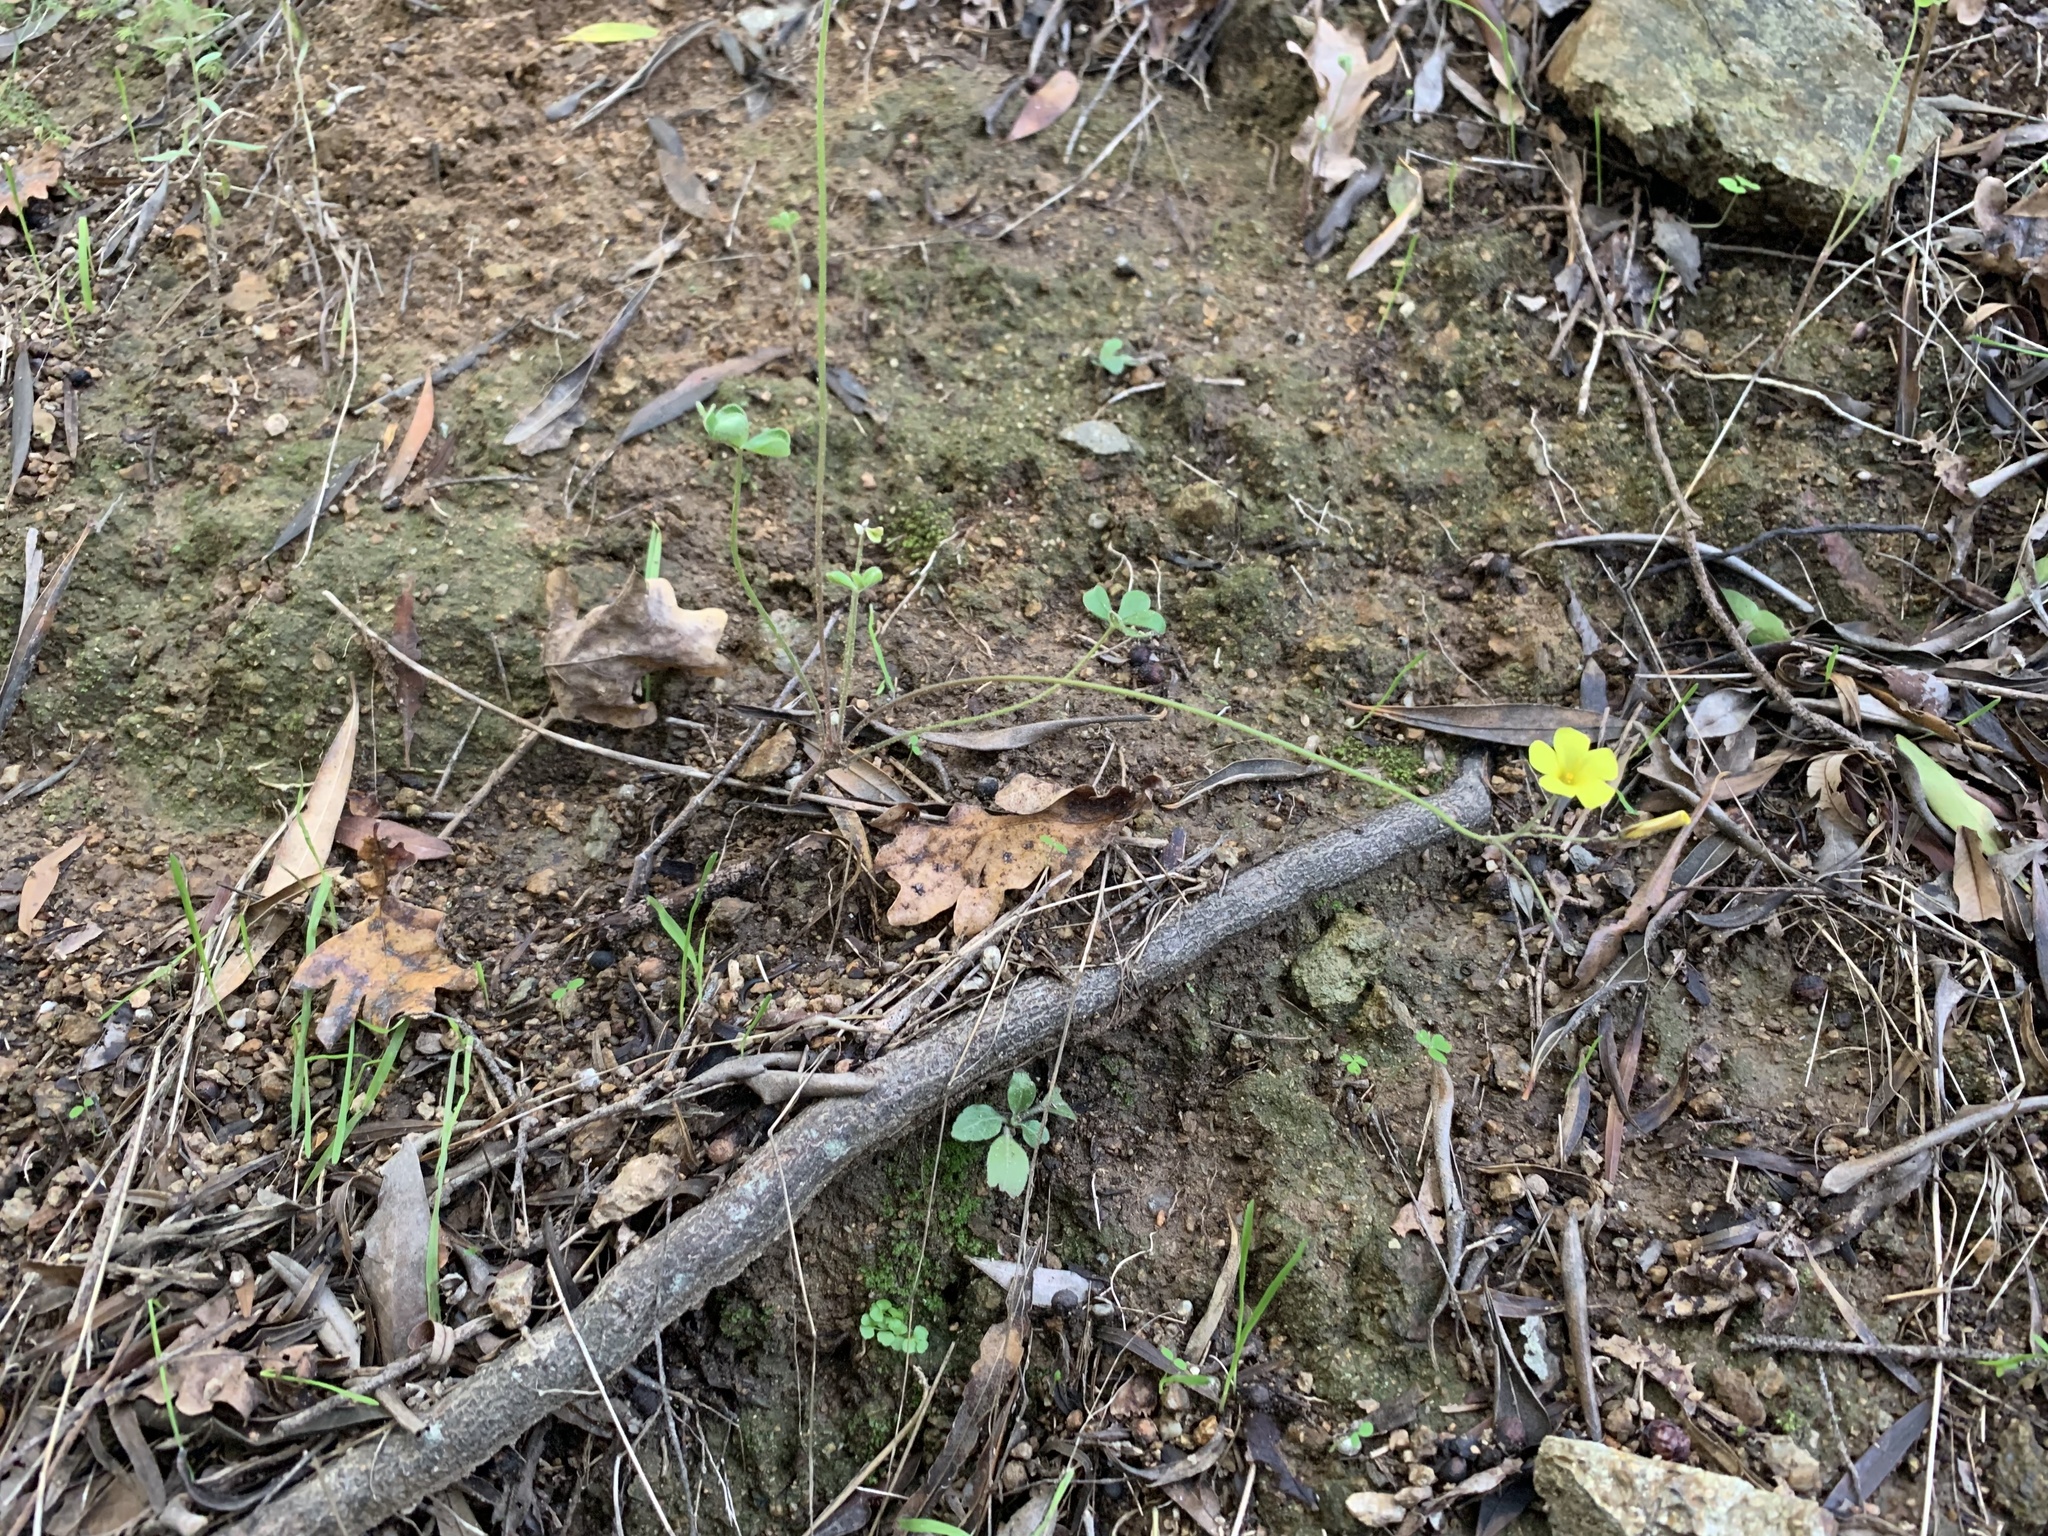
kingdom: Plantae
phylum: Tracheophyta
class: Magnoliopsida
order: Oxalidales
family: Oxalidaceae
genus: Oxalis
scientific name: Oxalis pes-caprae
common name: Bermuda-buttercup
